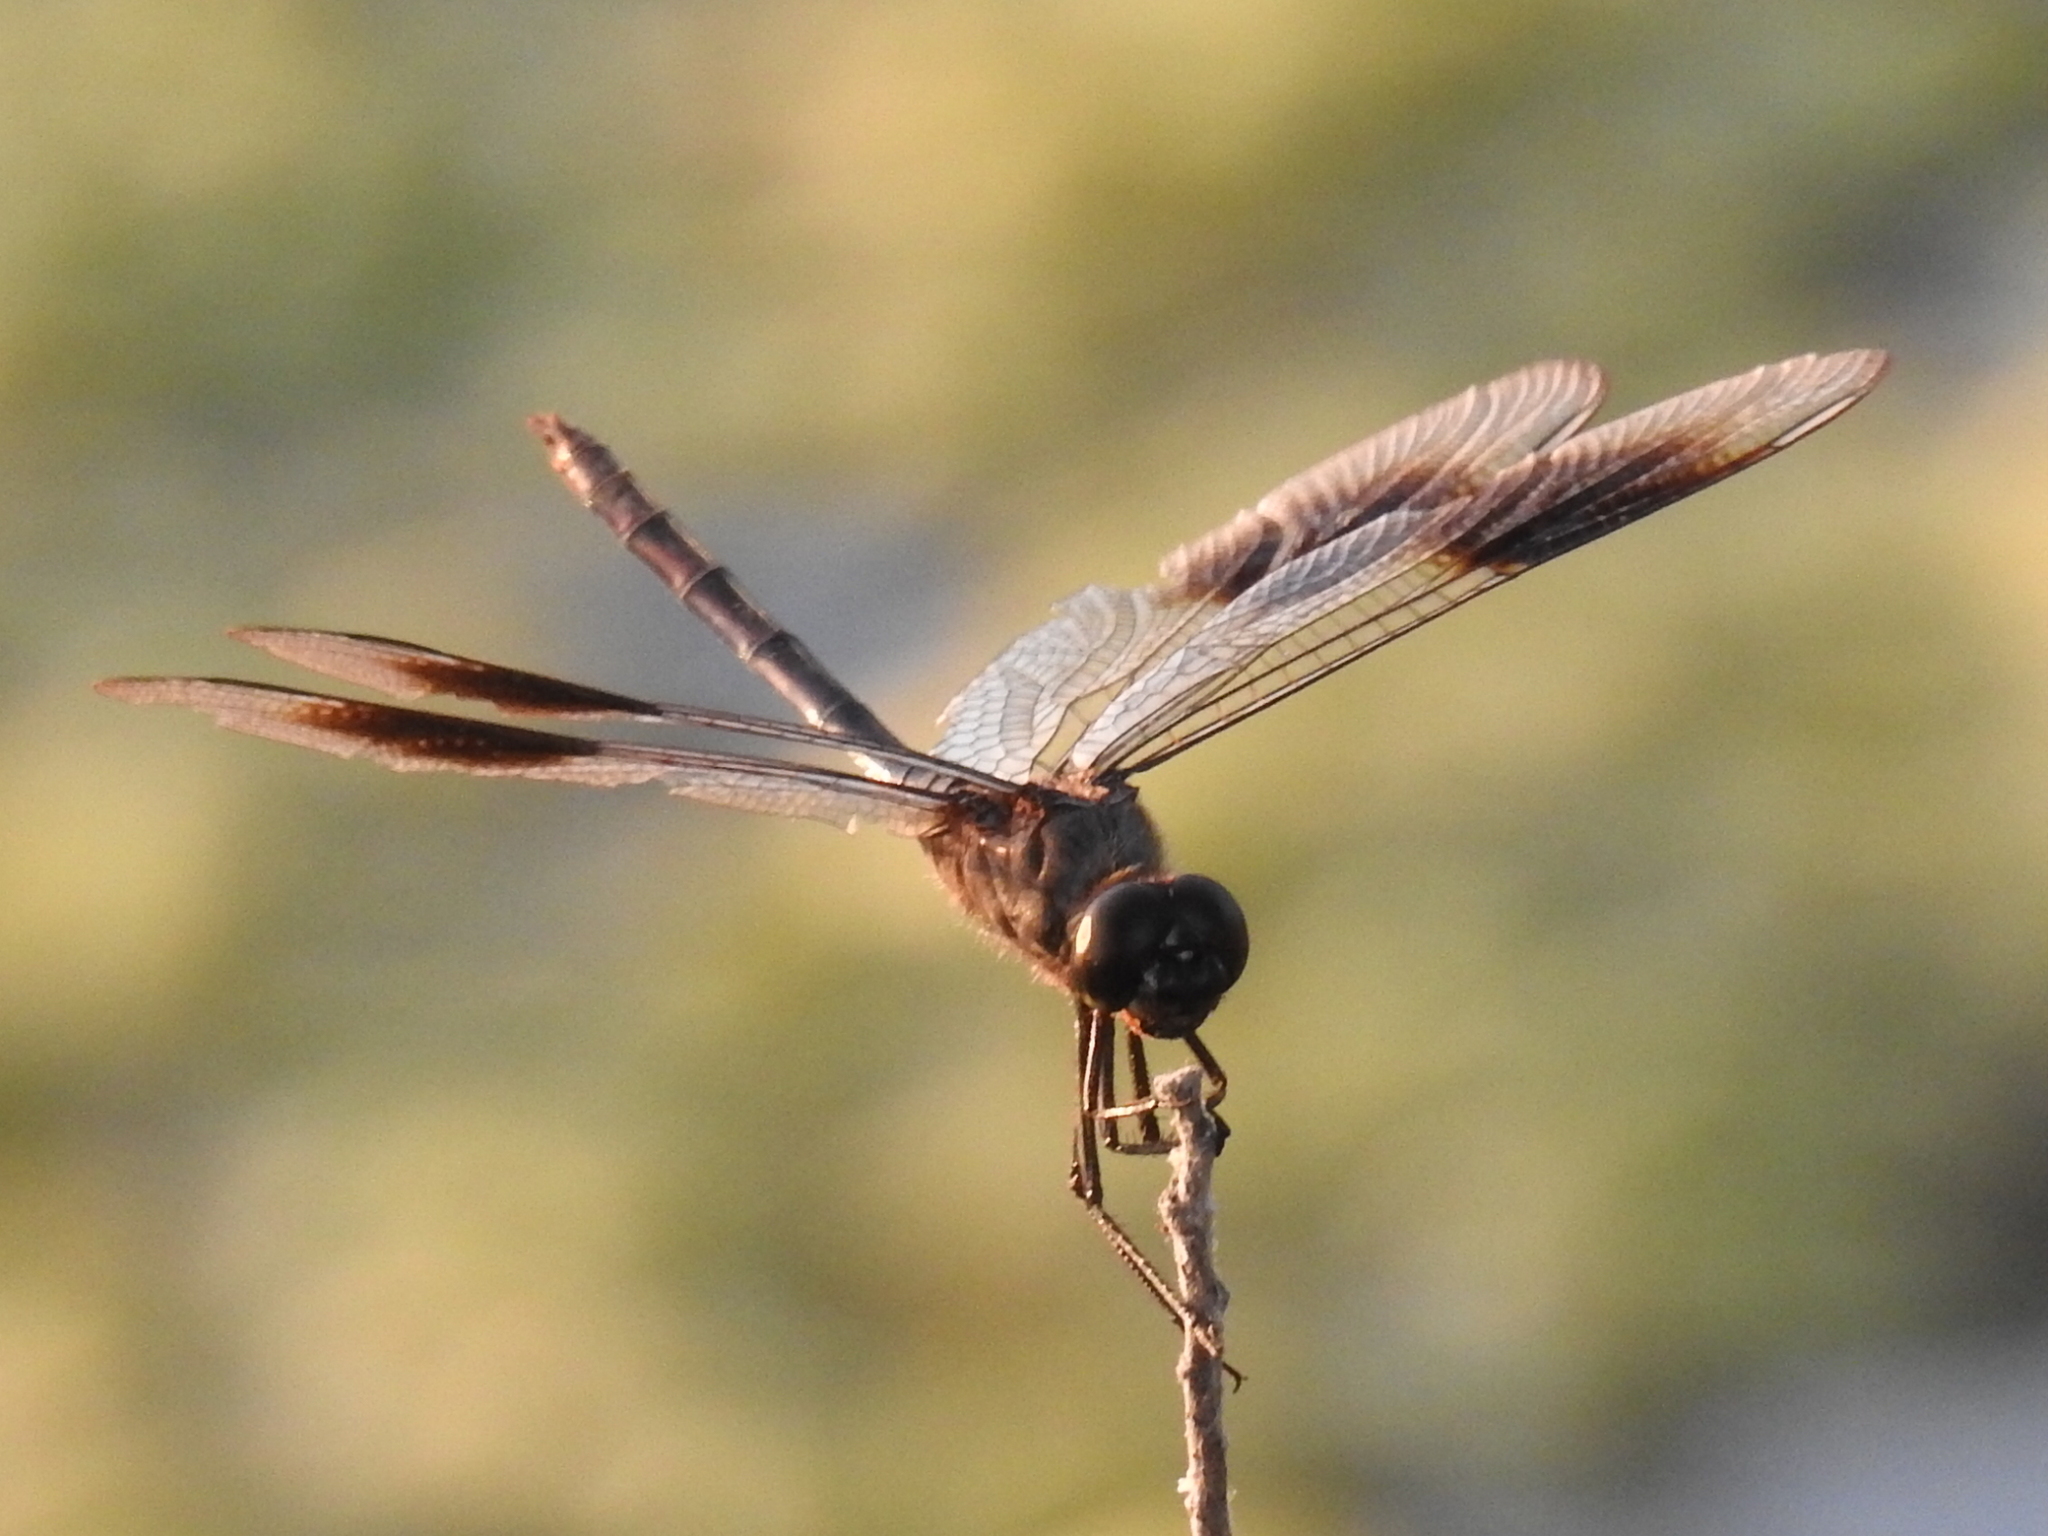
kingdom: Animalia
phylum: Arthropoda
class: Insecta
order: Odonata
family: Libellulidae
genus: Brachymesia
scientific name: Brachymesia gravida
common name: Four-spotted pennant
